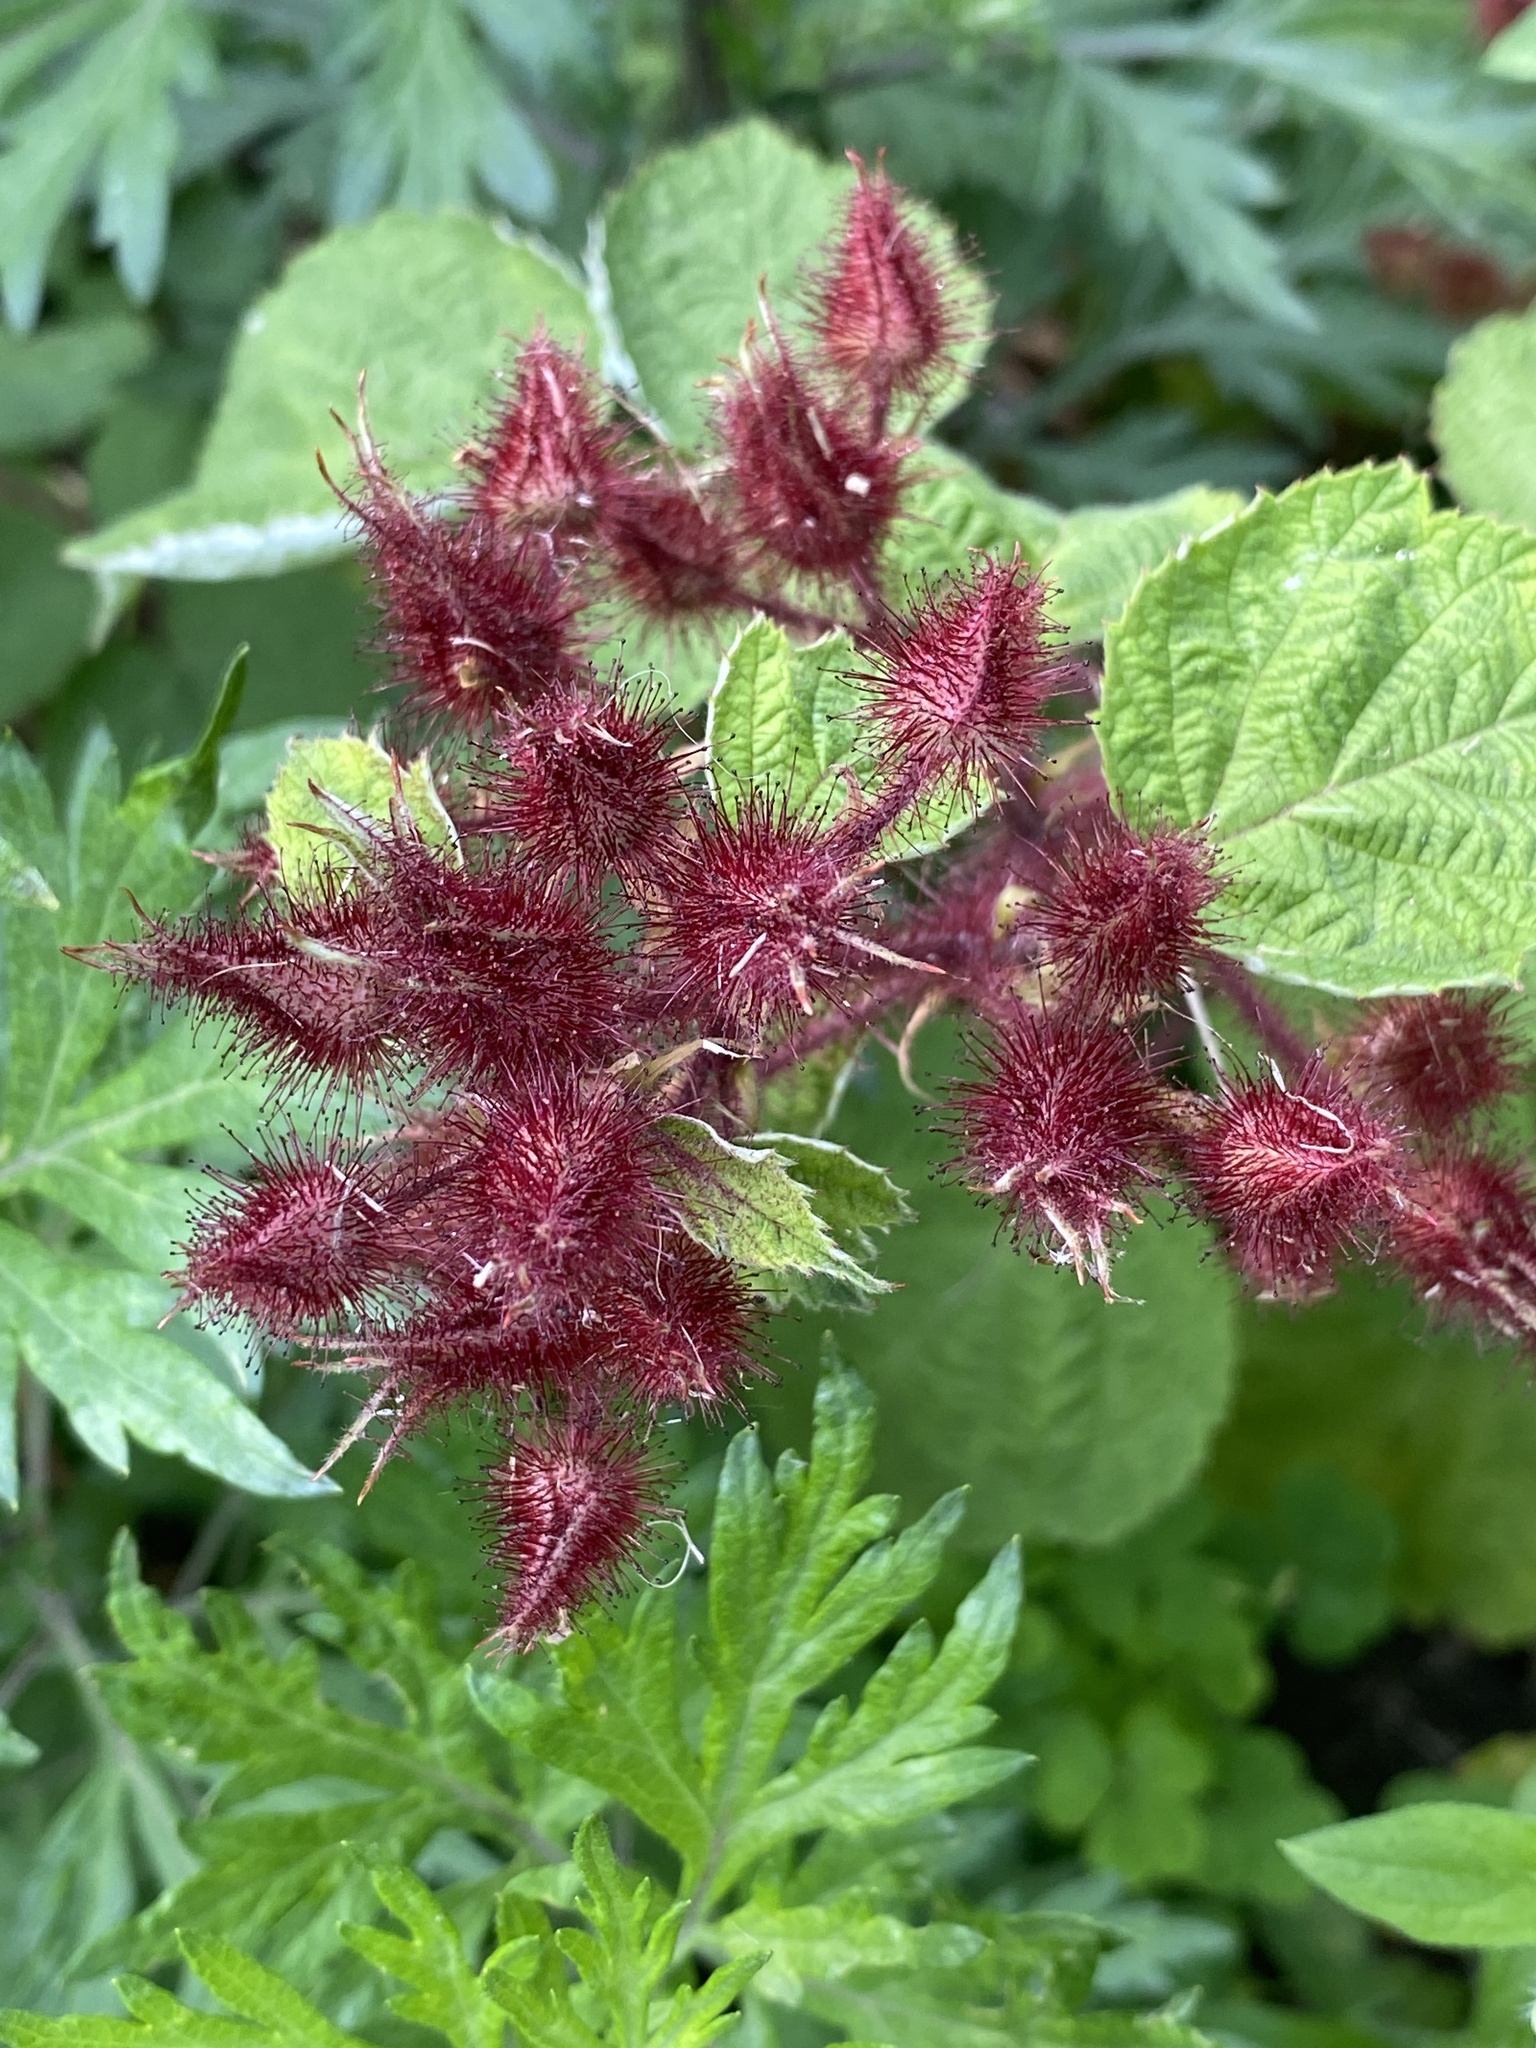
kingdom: Plantae
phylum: Tracheophyta
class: Magnoliopsida
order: Rosales
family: Rosaceae
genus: Rubus
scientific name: Rubus phoenicolasius
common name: Japanese wineberry
